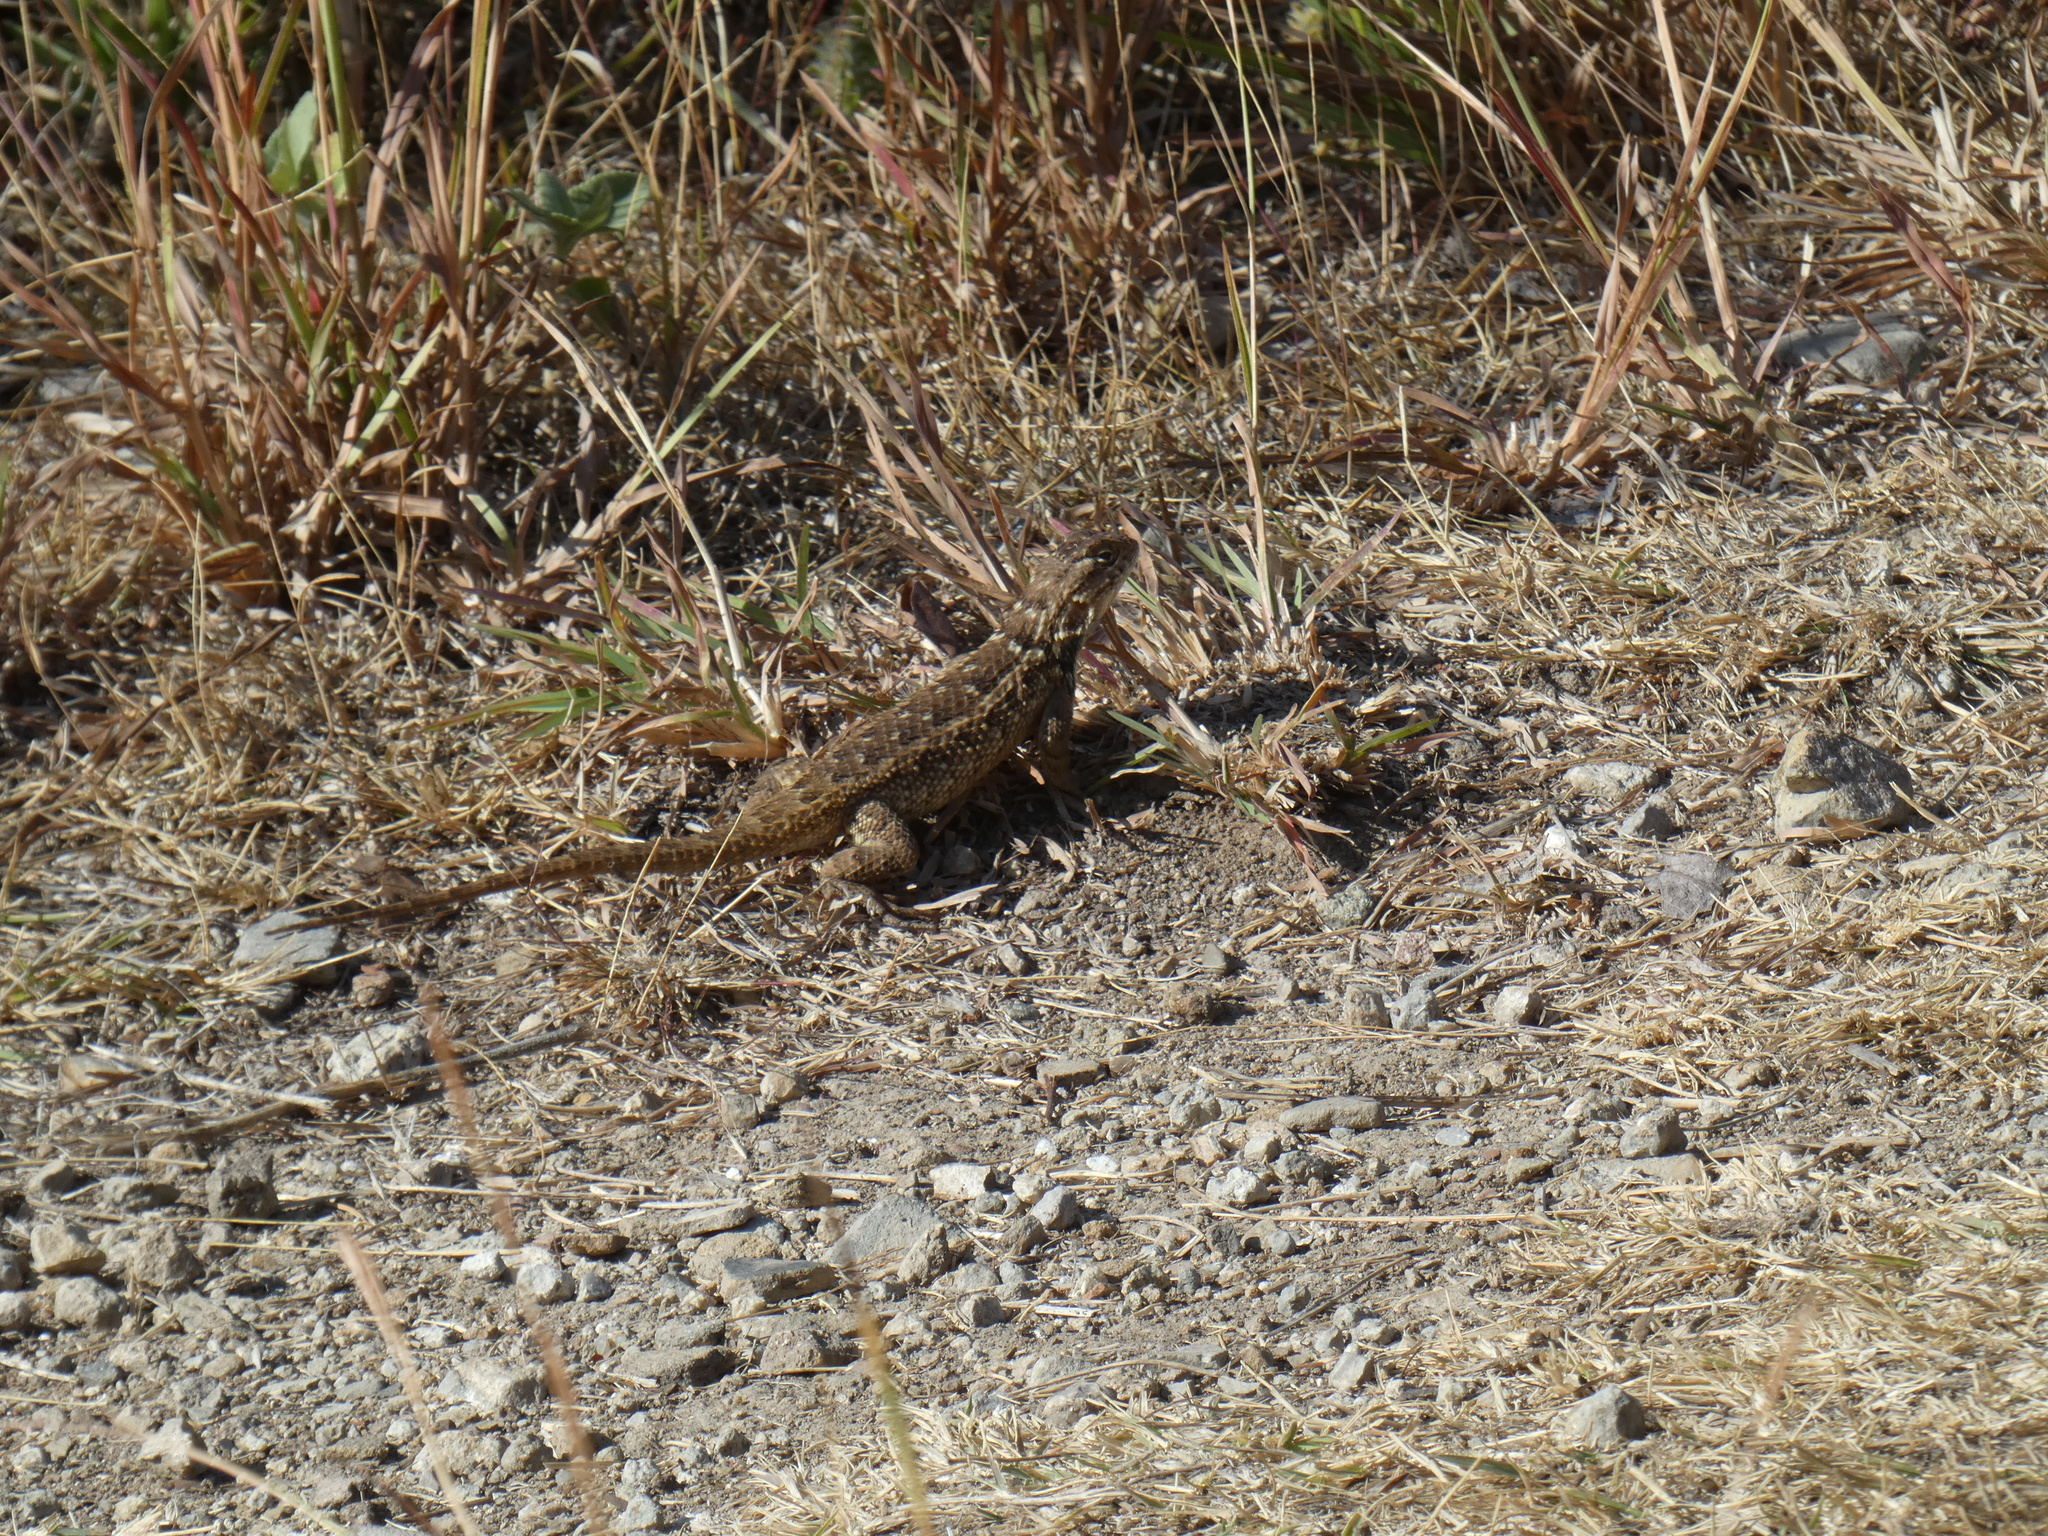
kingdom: Animalia
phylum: Chordata
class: Squamata
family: Phrynosomatidae
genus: Sceloporus
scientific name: Sceloporus spinosus
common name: Blue-spotted spiny lizard [caeruleopunctatus]
